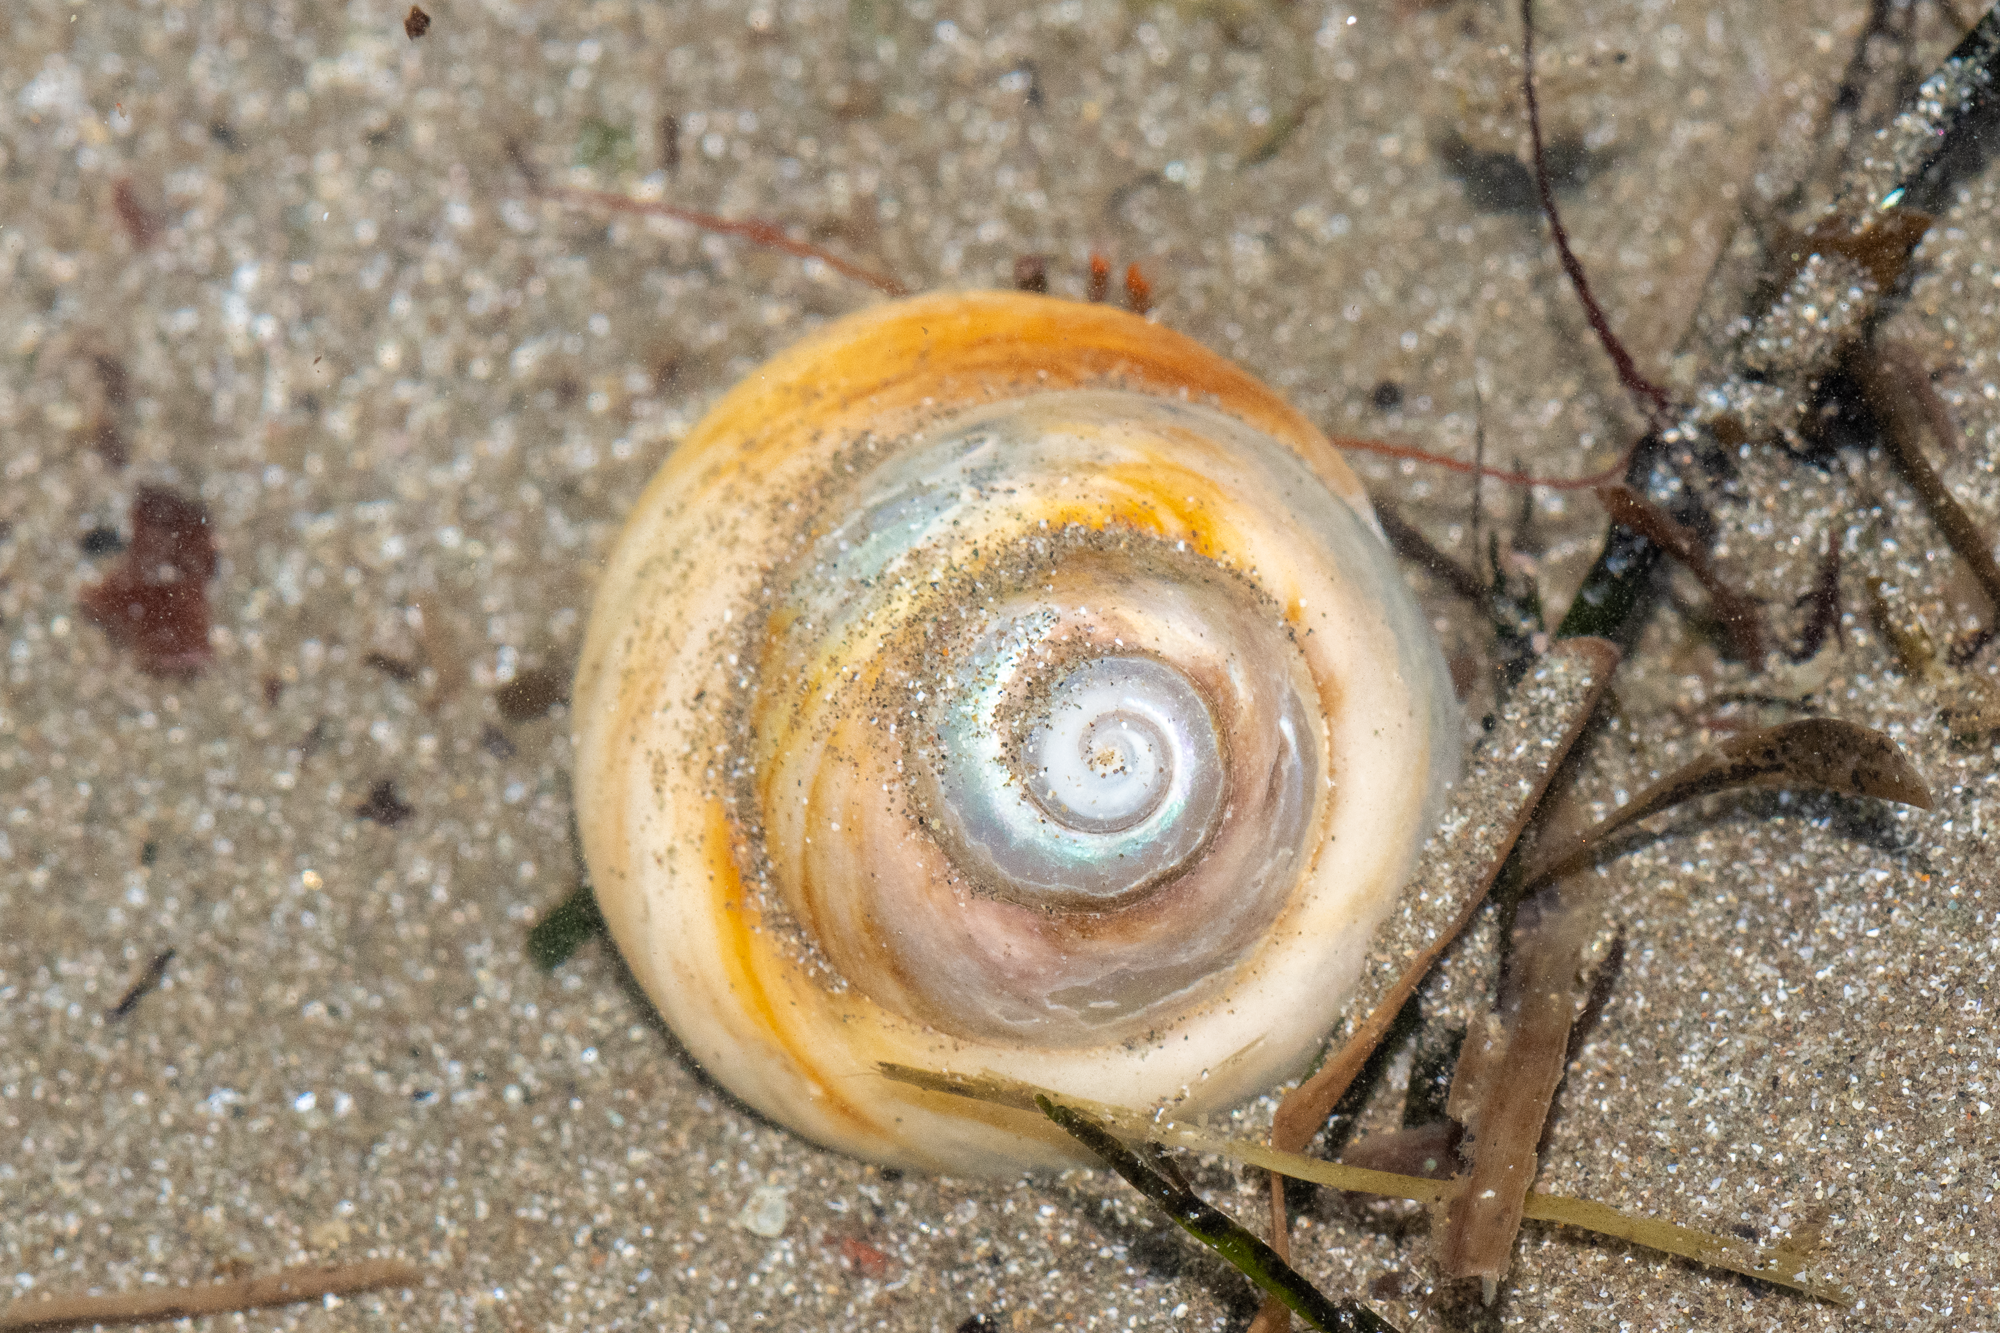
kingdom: Animalia
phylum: Mollusca
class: Gastropoda
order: Trochida
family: Tegulidae
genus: Tegula
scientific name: Tegula brunnea
